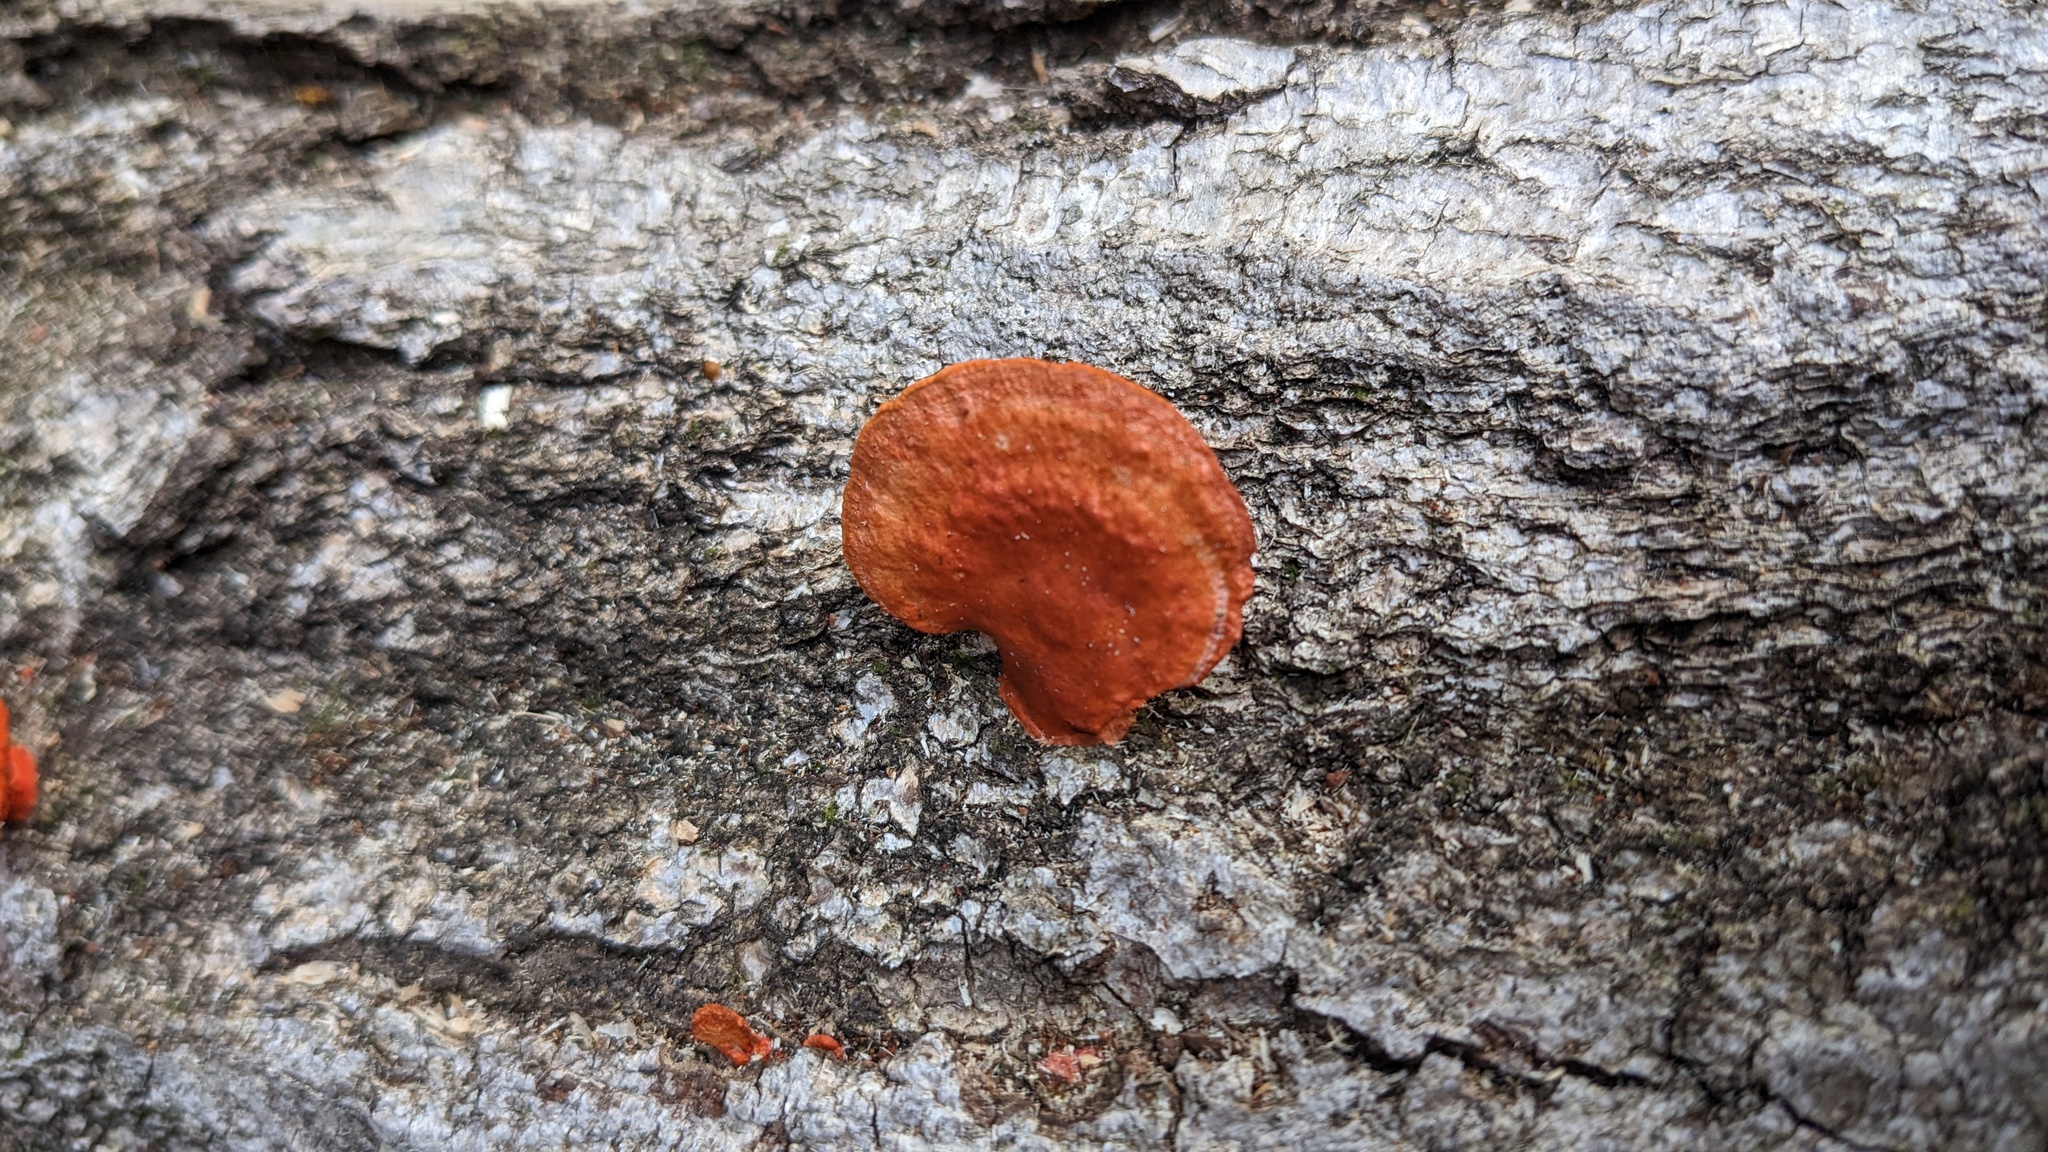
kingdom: Fungi
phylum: Basidiomycota
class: Agaricomycetes
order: Polyporales
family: Polyporaceae
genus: Trametes
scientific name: Trametes coccinea
